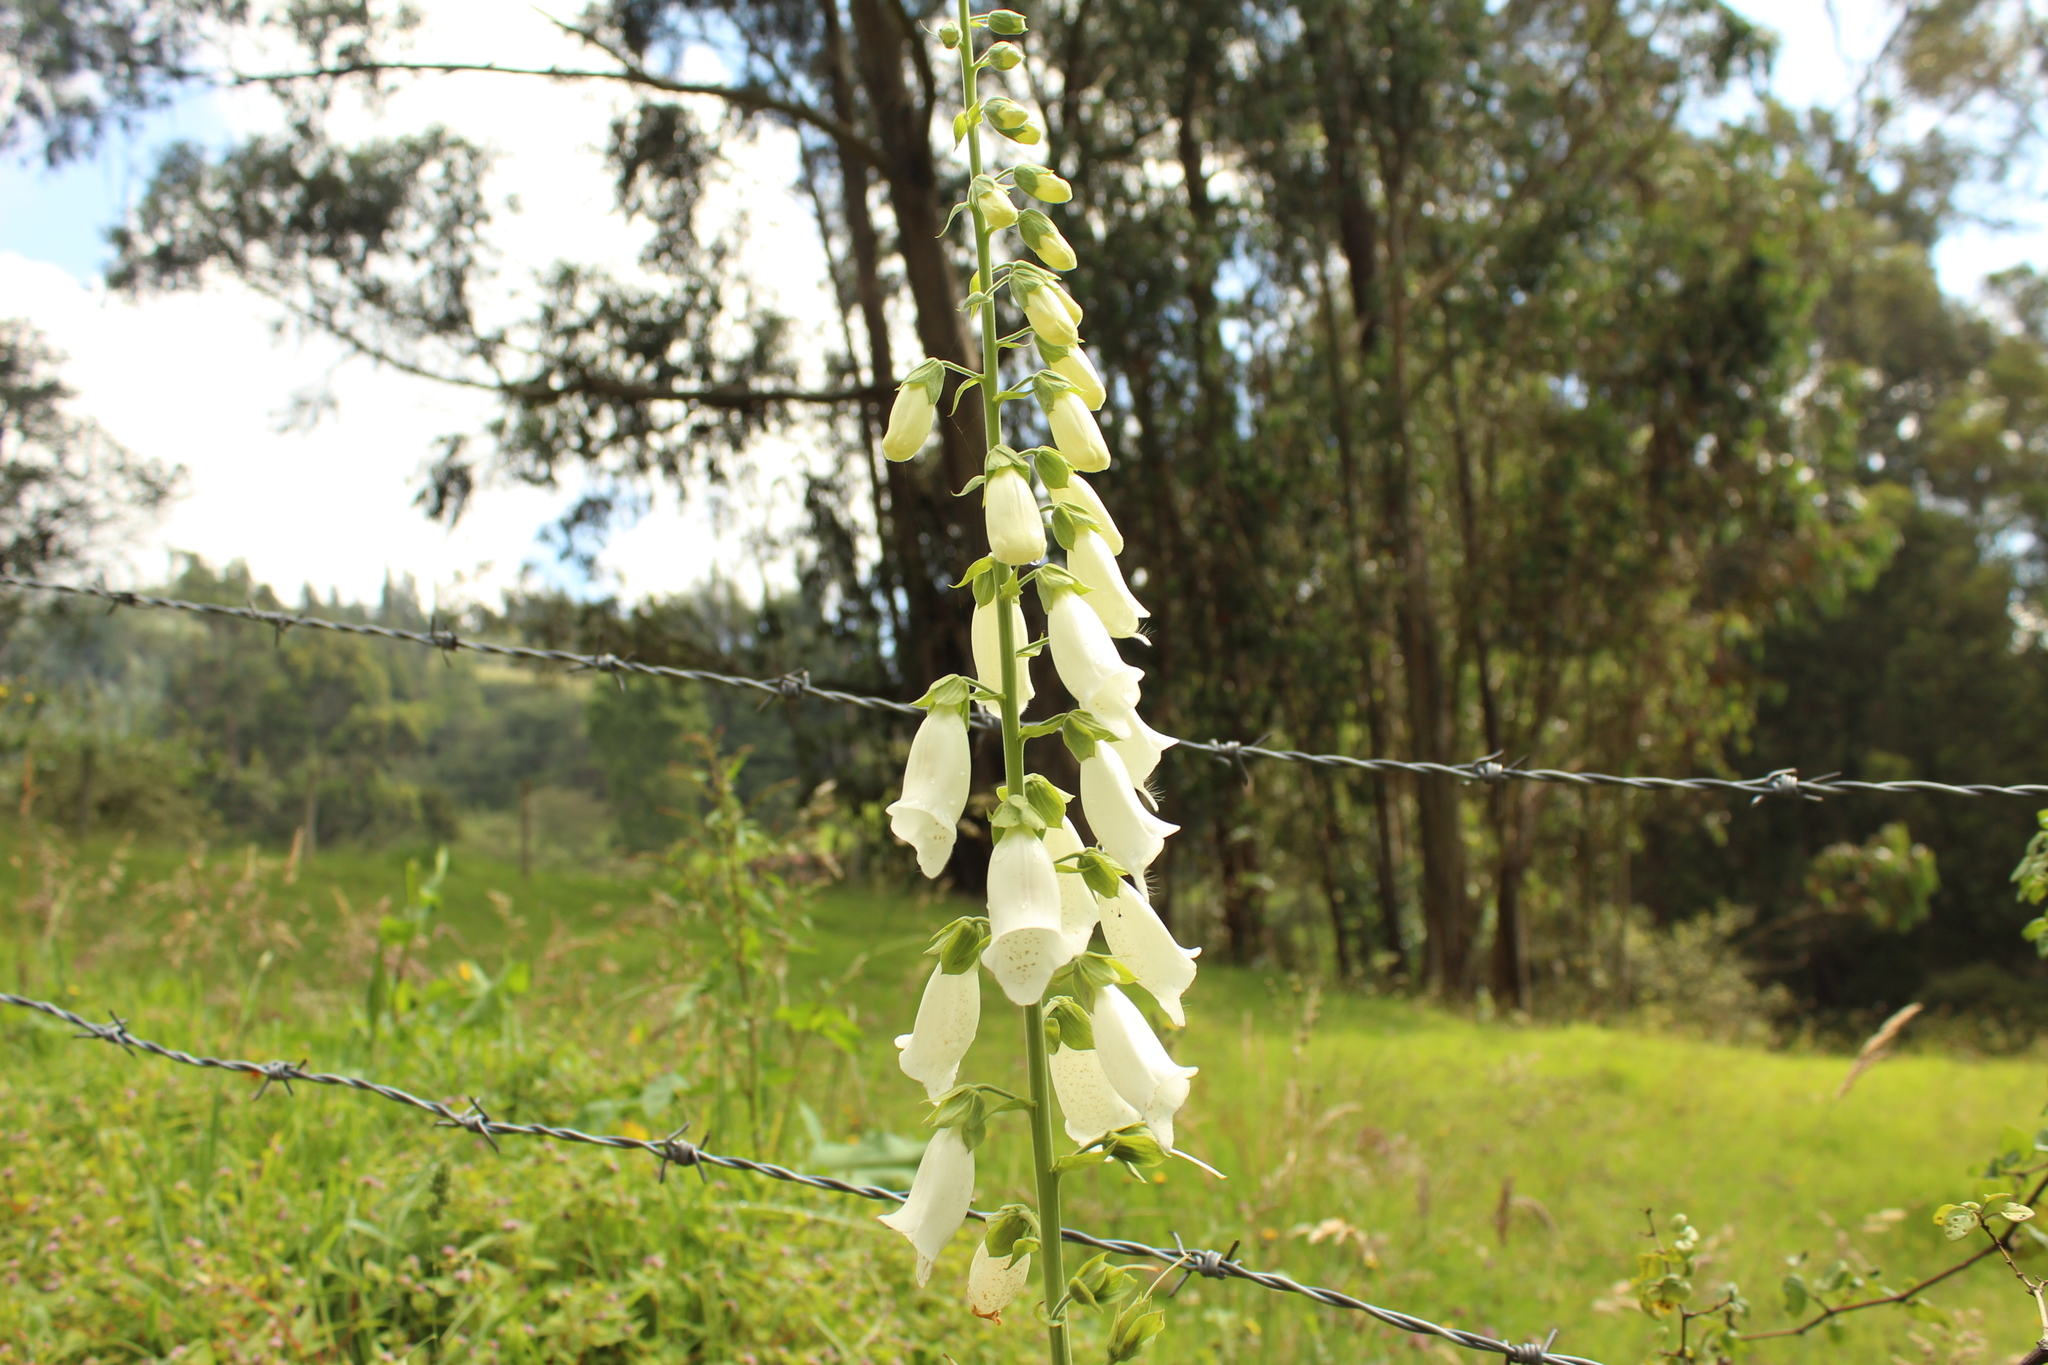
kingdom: Plantae
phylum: Tracheophyta
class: Magnoliopsida
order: Lamiales
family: Plantaginaceae
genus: Digitalis
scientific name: Digitalis purpurea
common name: Foxglove
